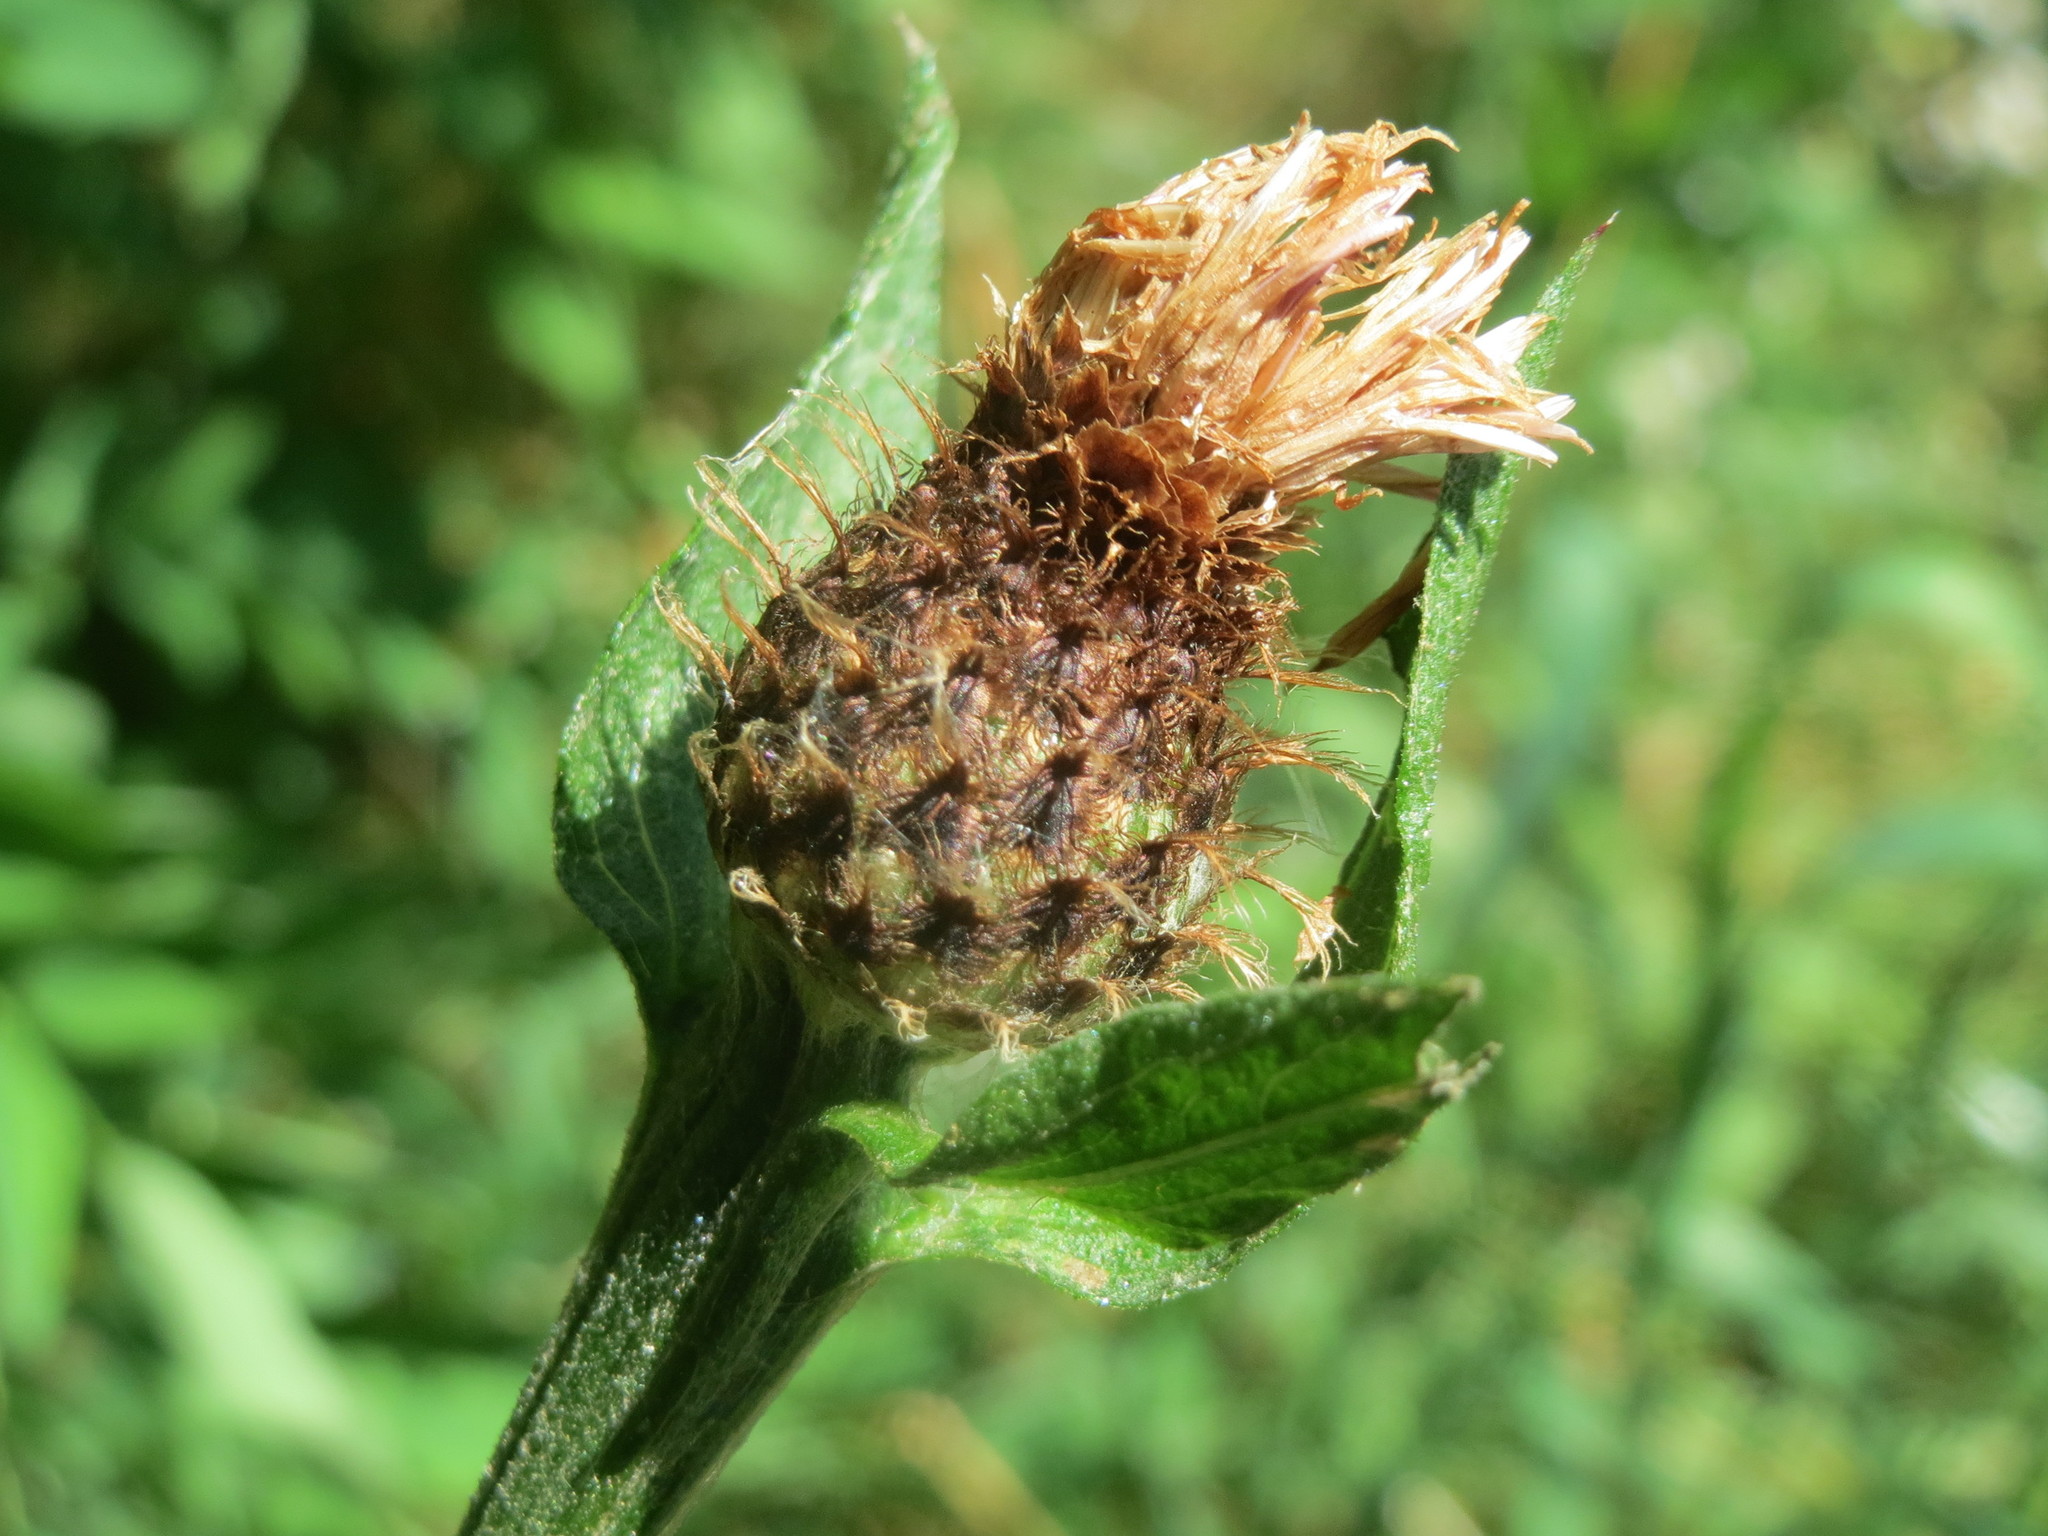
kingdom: Plantae
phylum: Tracheophyta
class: Magnoliopsida
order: Asterales
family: Asteraceae
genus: Centaurea
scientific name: Centaurea phrygia
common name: Wig knapweed
